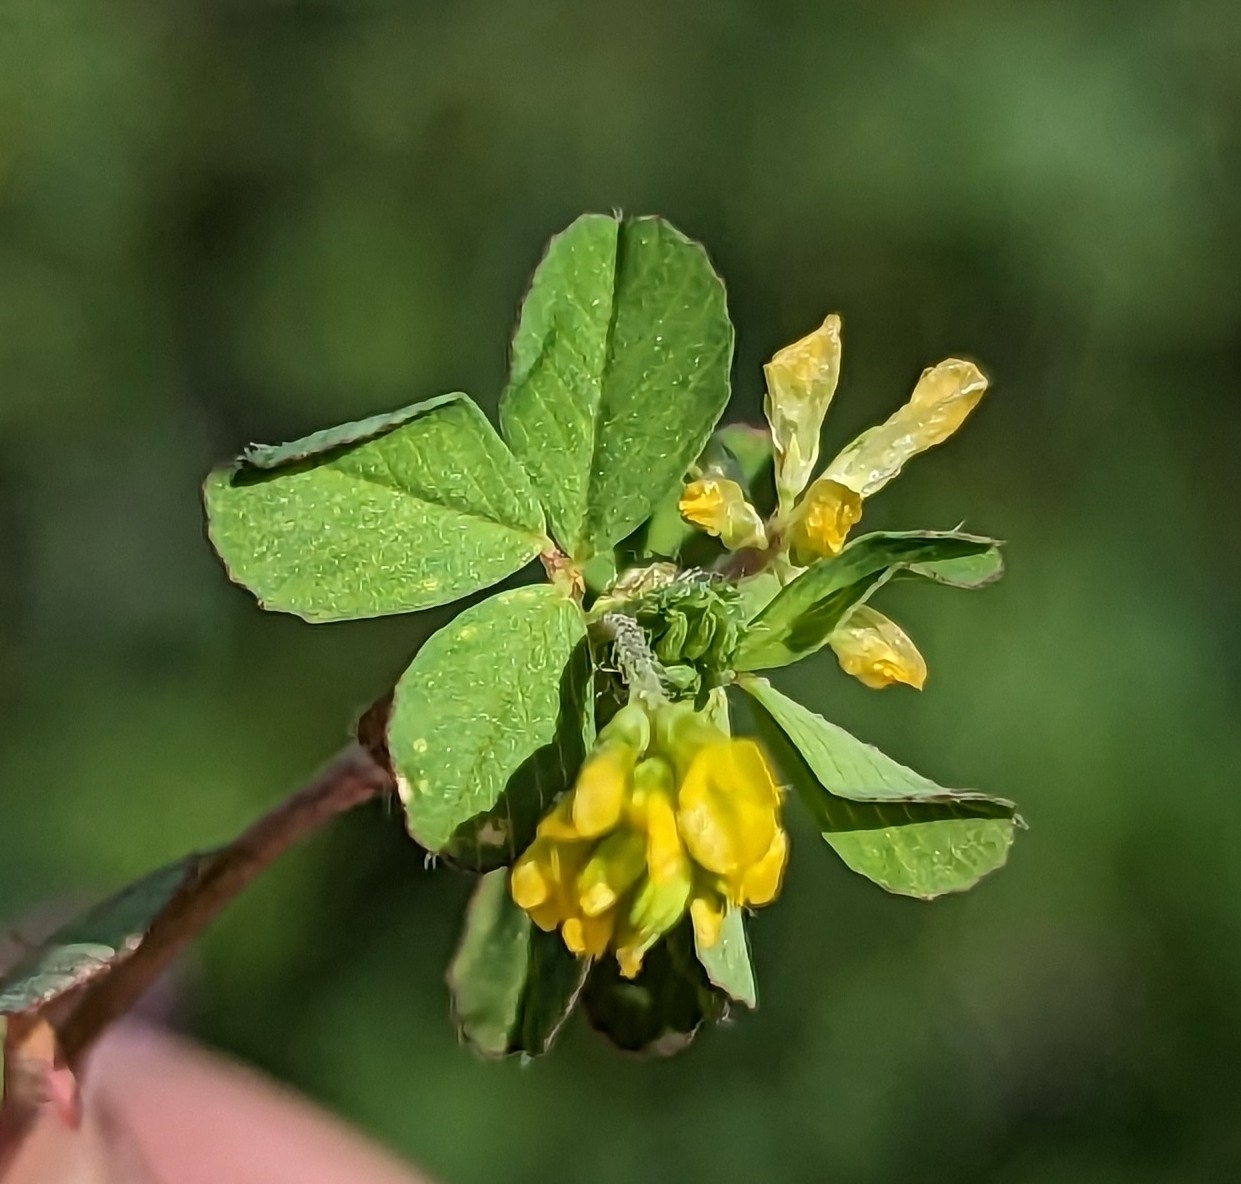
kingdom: Plantae
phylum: Tracheophyta
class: Magnoliopsida
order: Fabales
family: Fabaceae
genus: Trifolium
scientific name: Trifolium dubium
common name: Suckling clover
